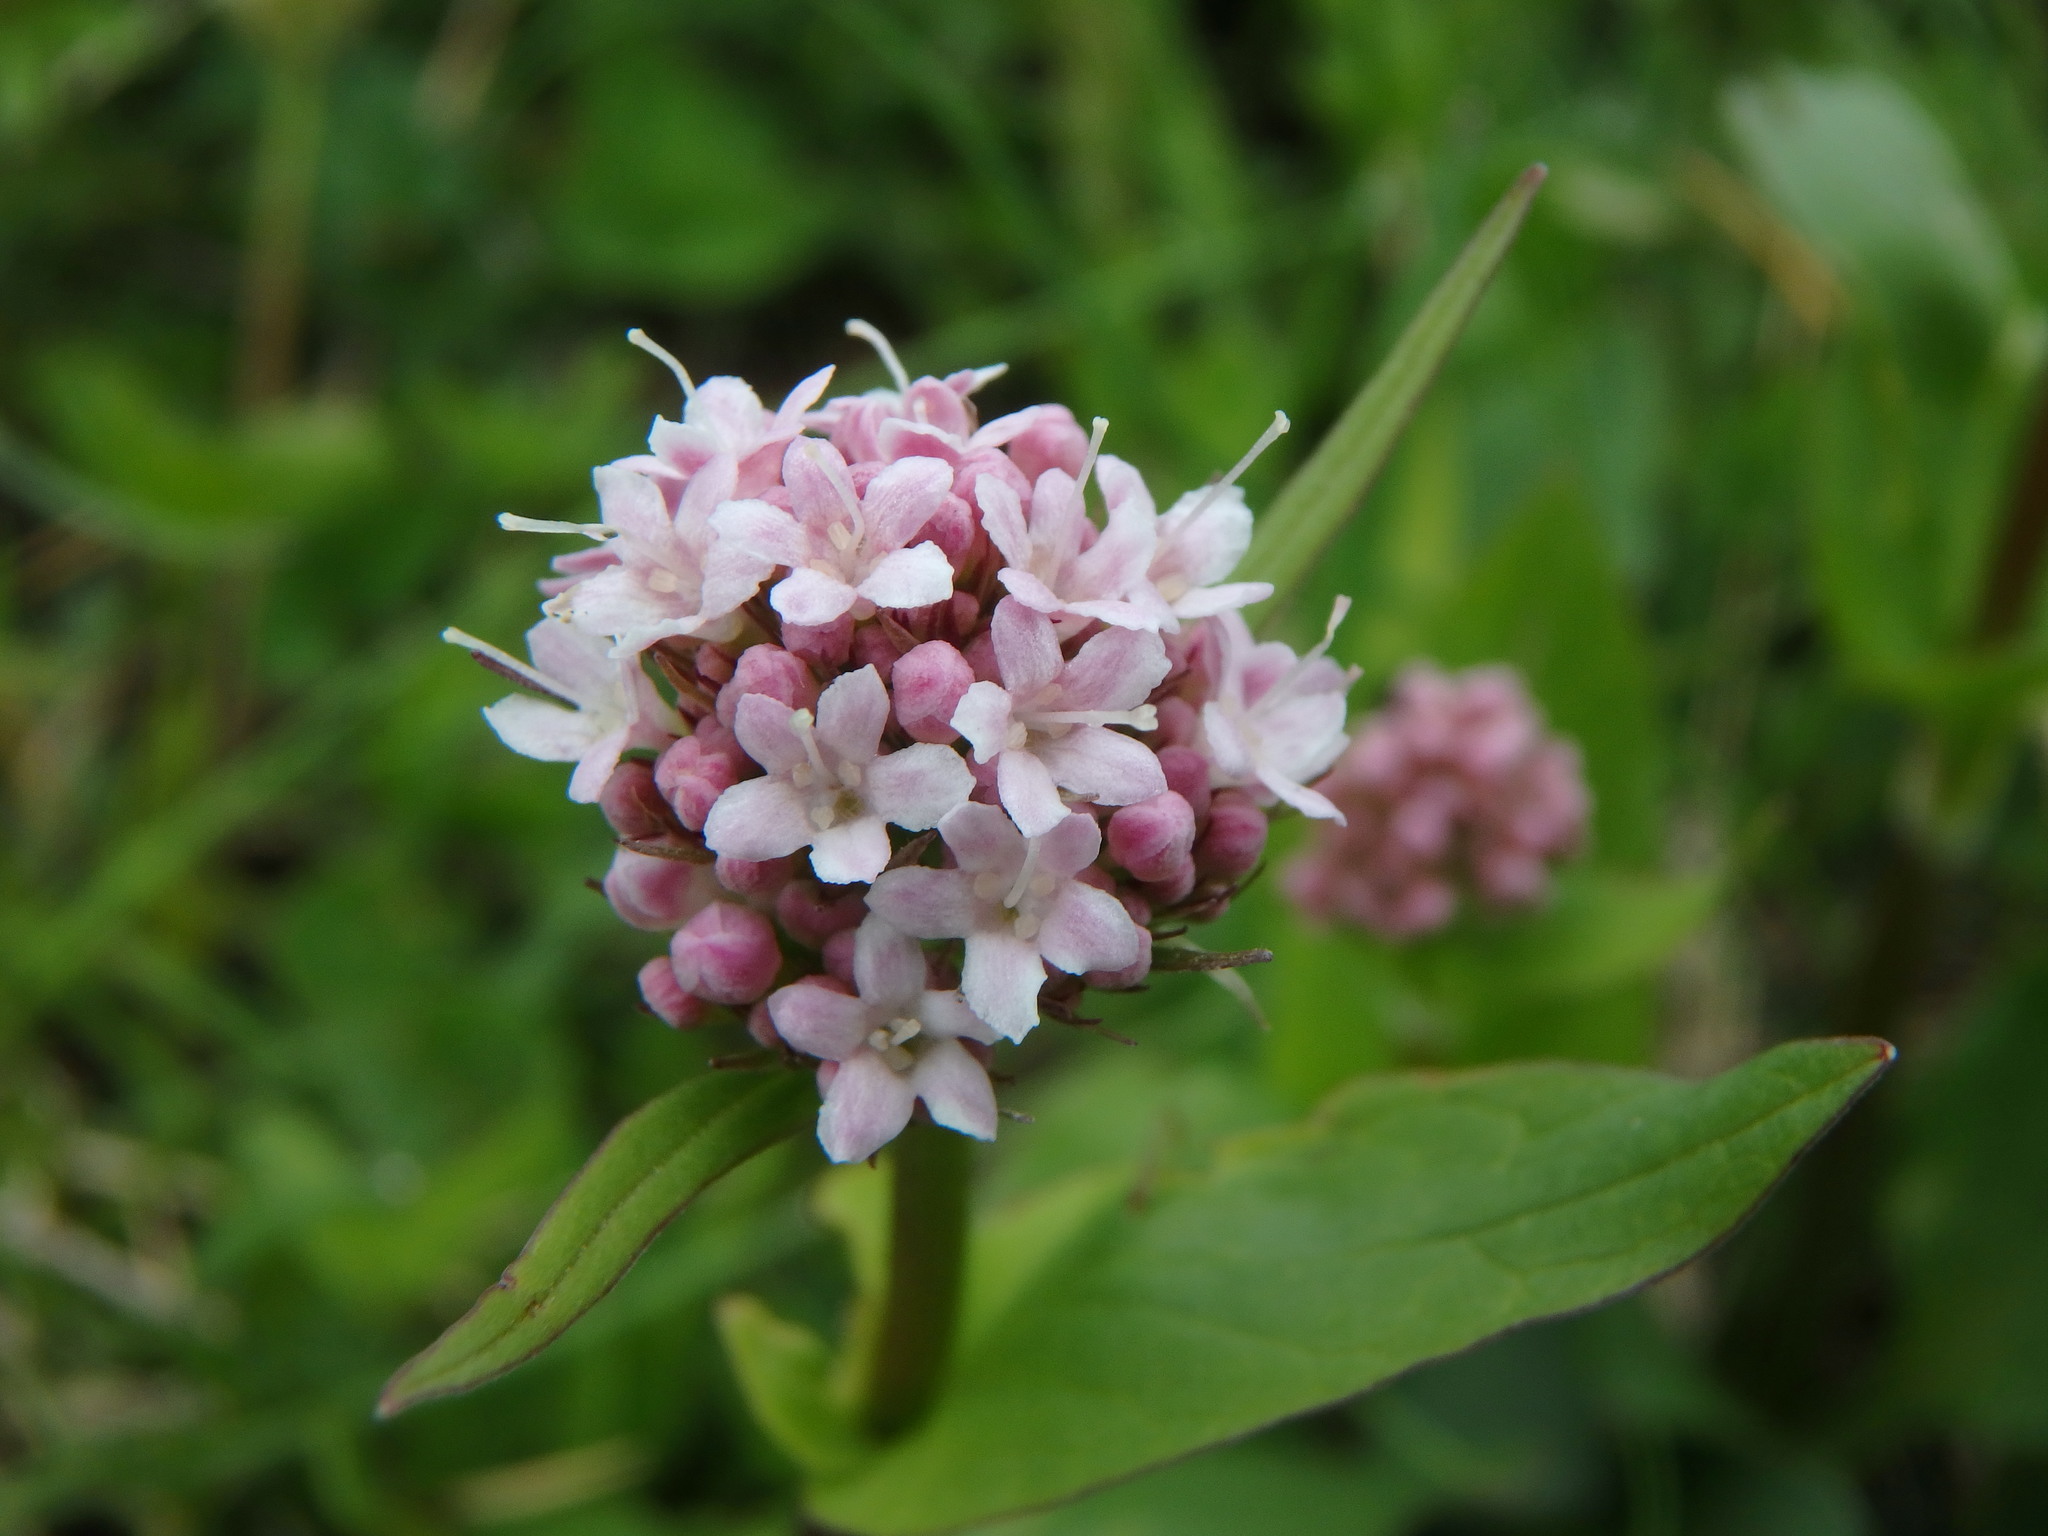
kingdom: Plantae
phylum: Tracheophyta
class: Magnoliopsida
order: Dipsacales
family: Caprifoliaceae
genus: Valeriana
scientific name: Valeriana montana
